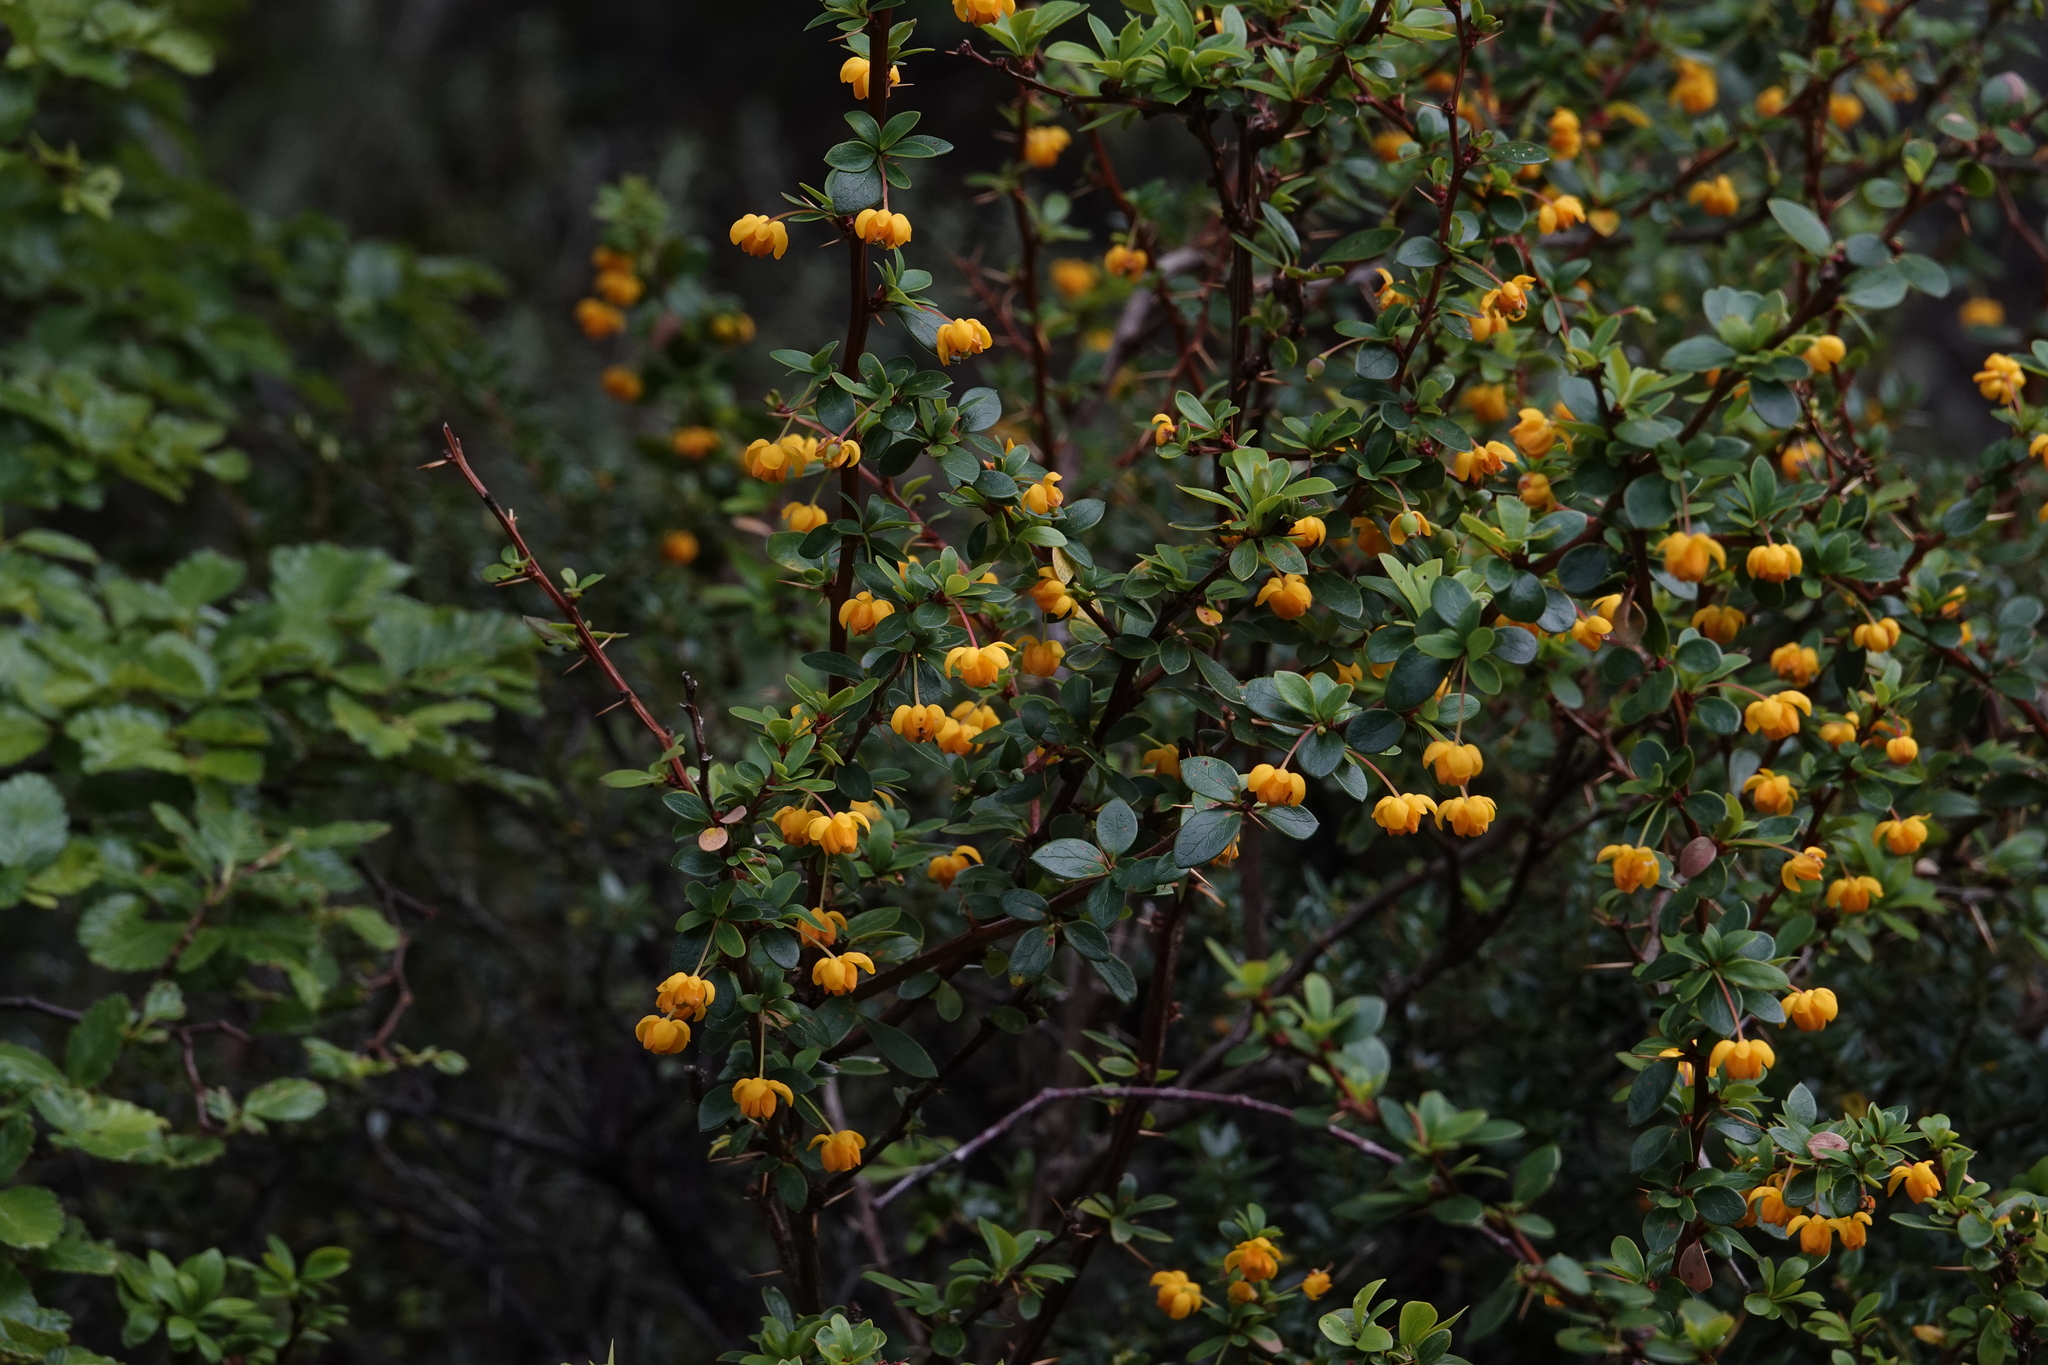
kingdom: Plantae
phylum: Tracheophyta
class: Magnoliopsida
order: Ranunculales
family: Berberidaceae
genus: Berberis
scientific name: Berberis microphylla
